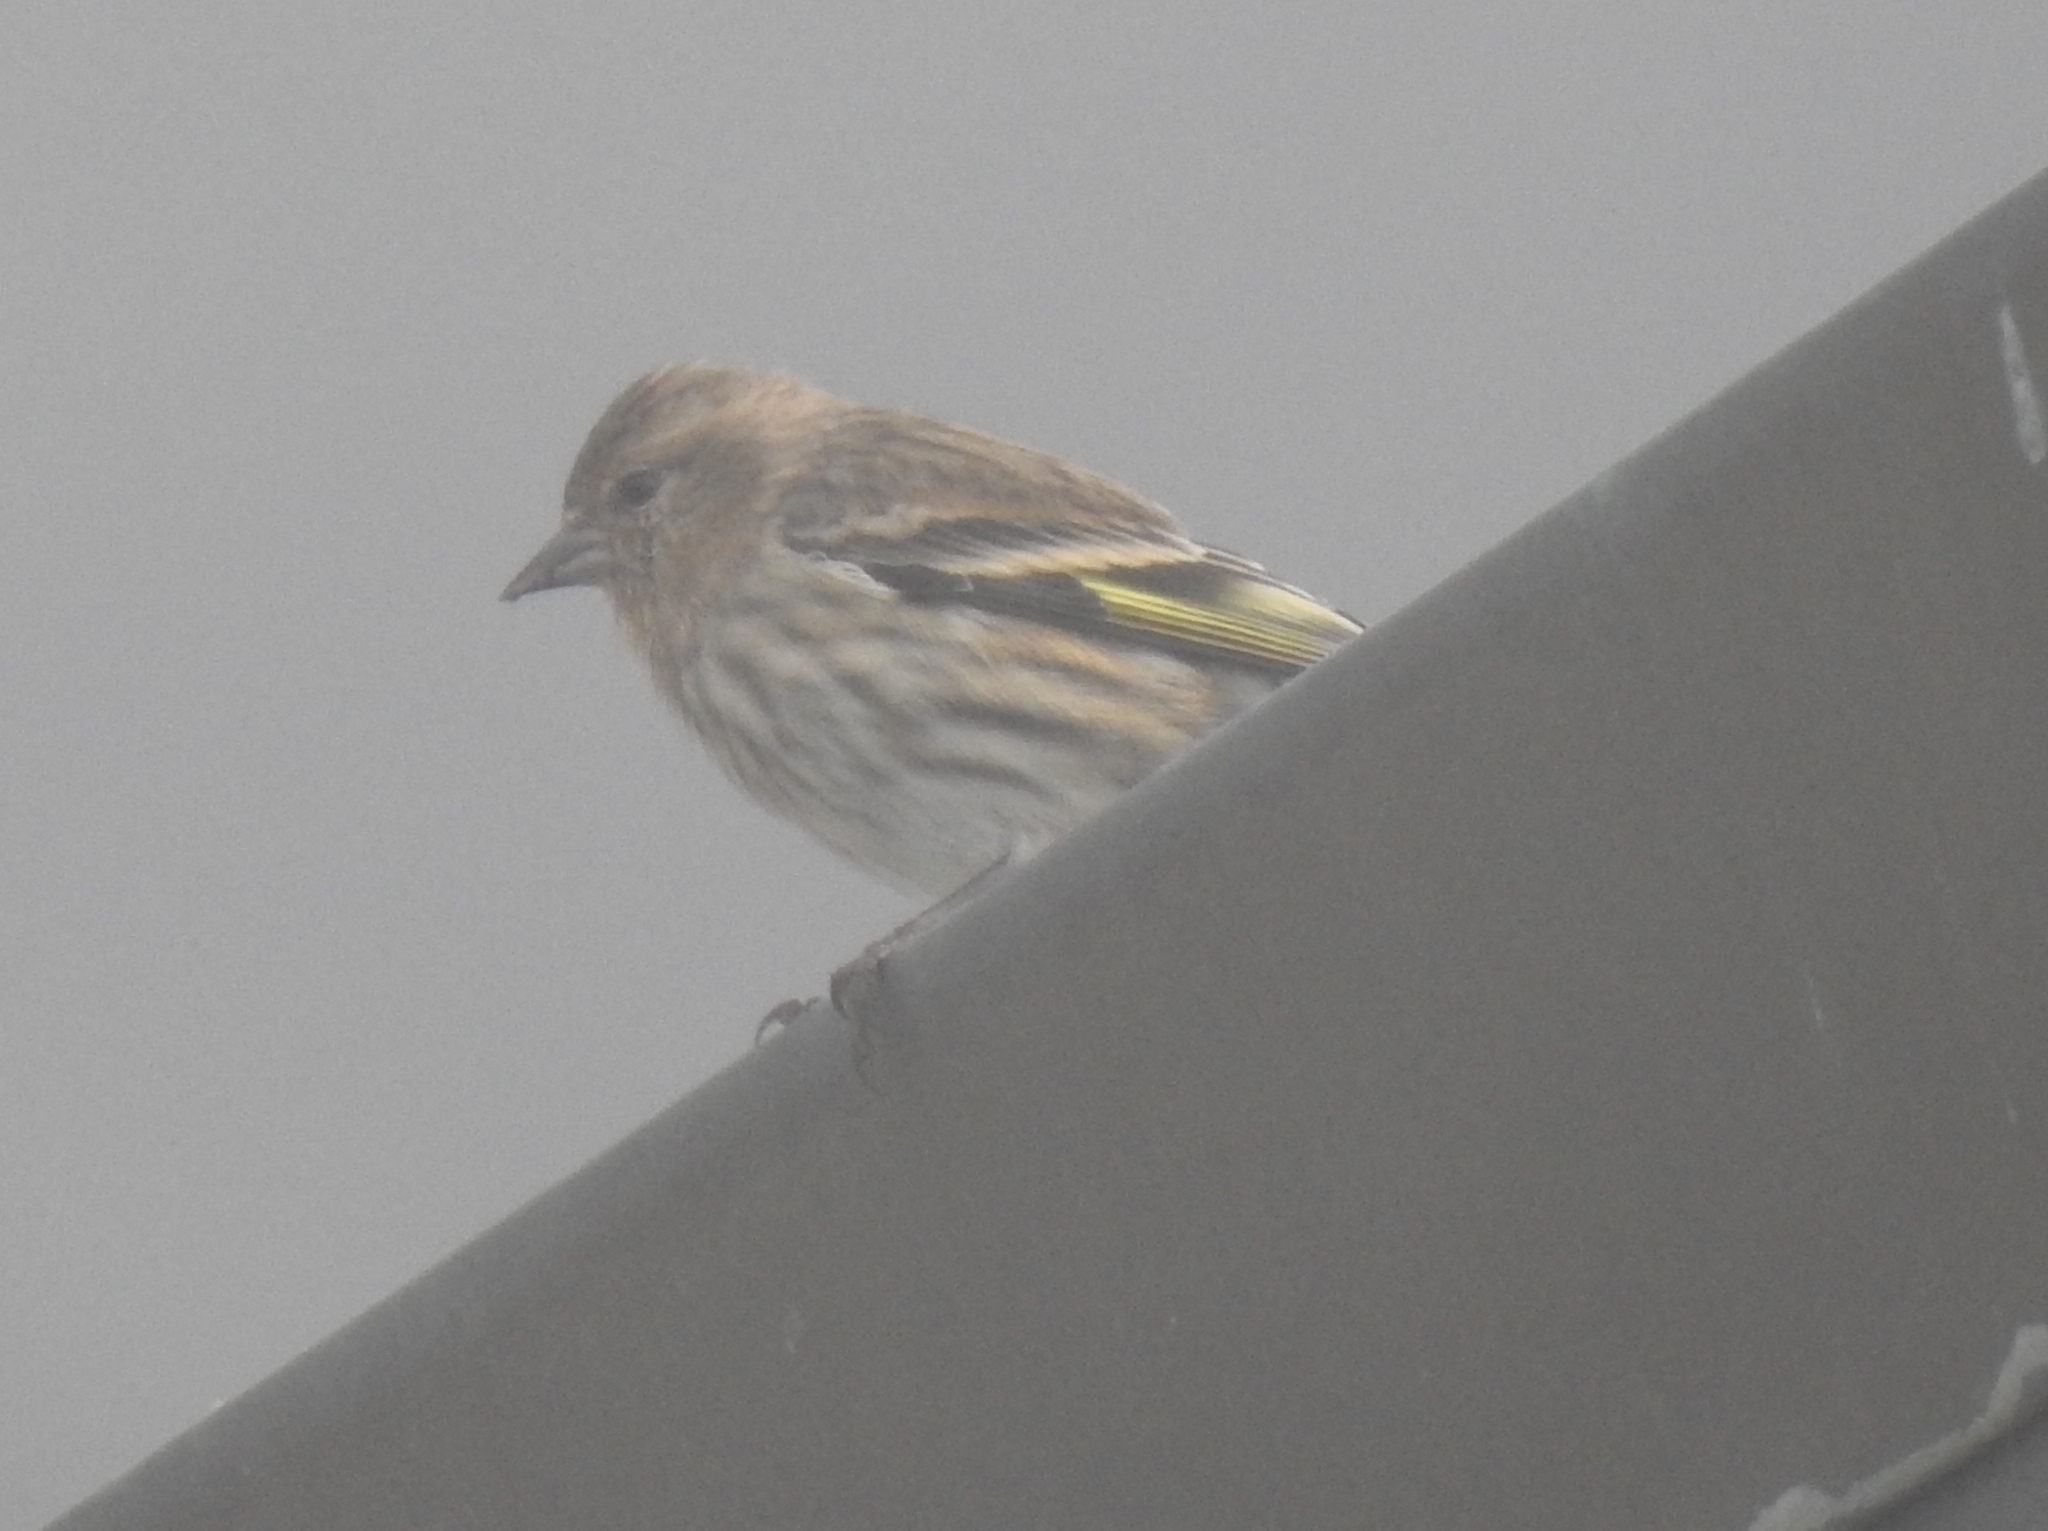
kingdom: Animalia
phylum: Chordata
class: Aves
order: Passeriformes
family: Fringillidae
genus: Spinus
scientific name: Spinus pinus
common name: Pine siskin
